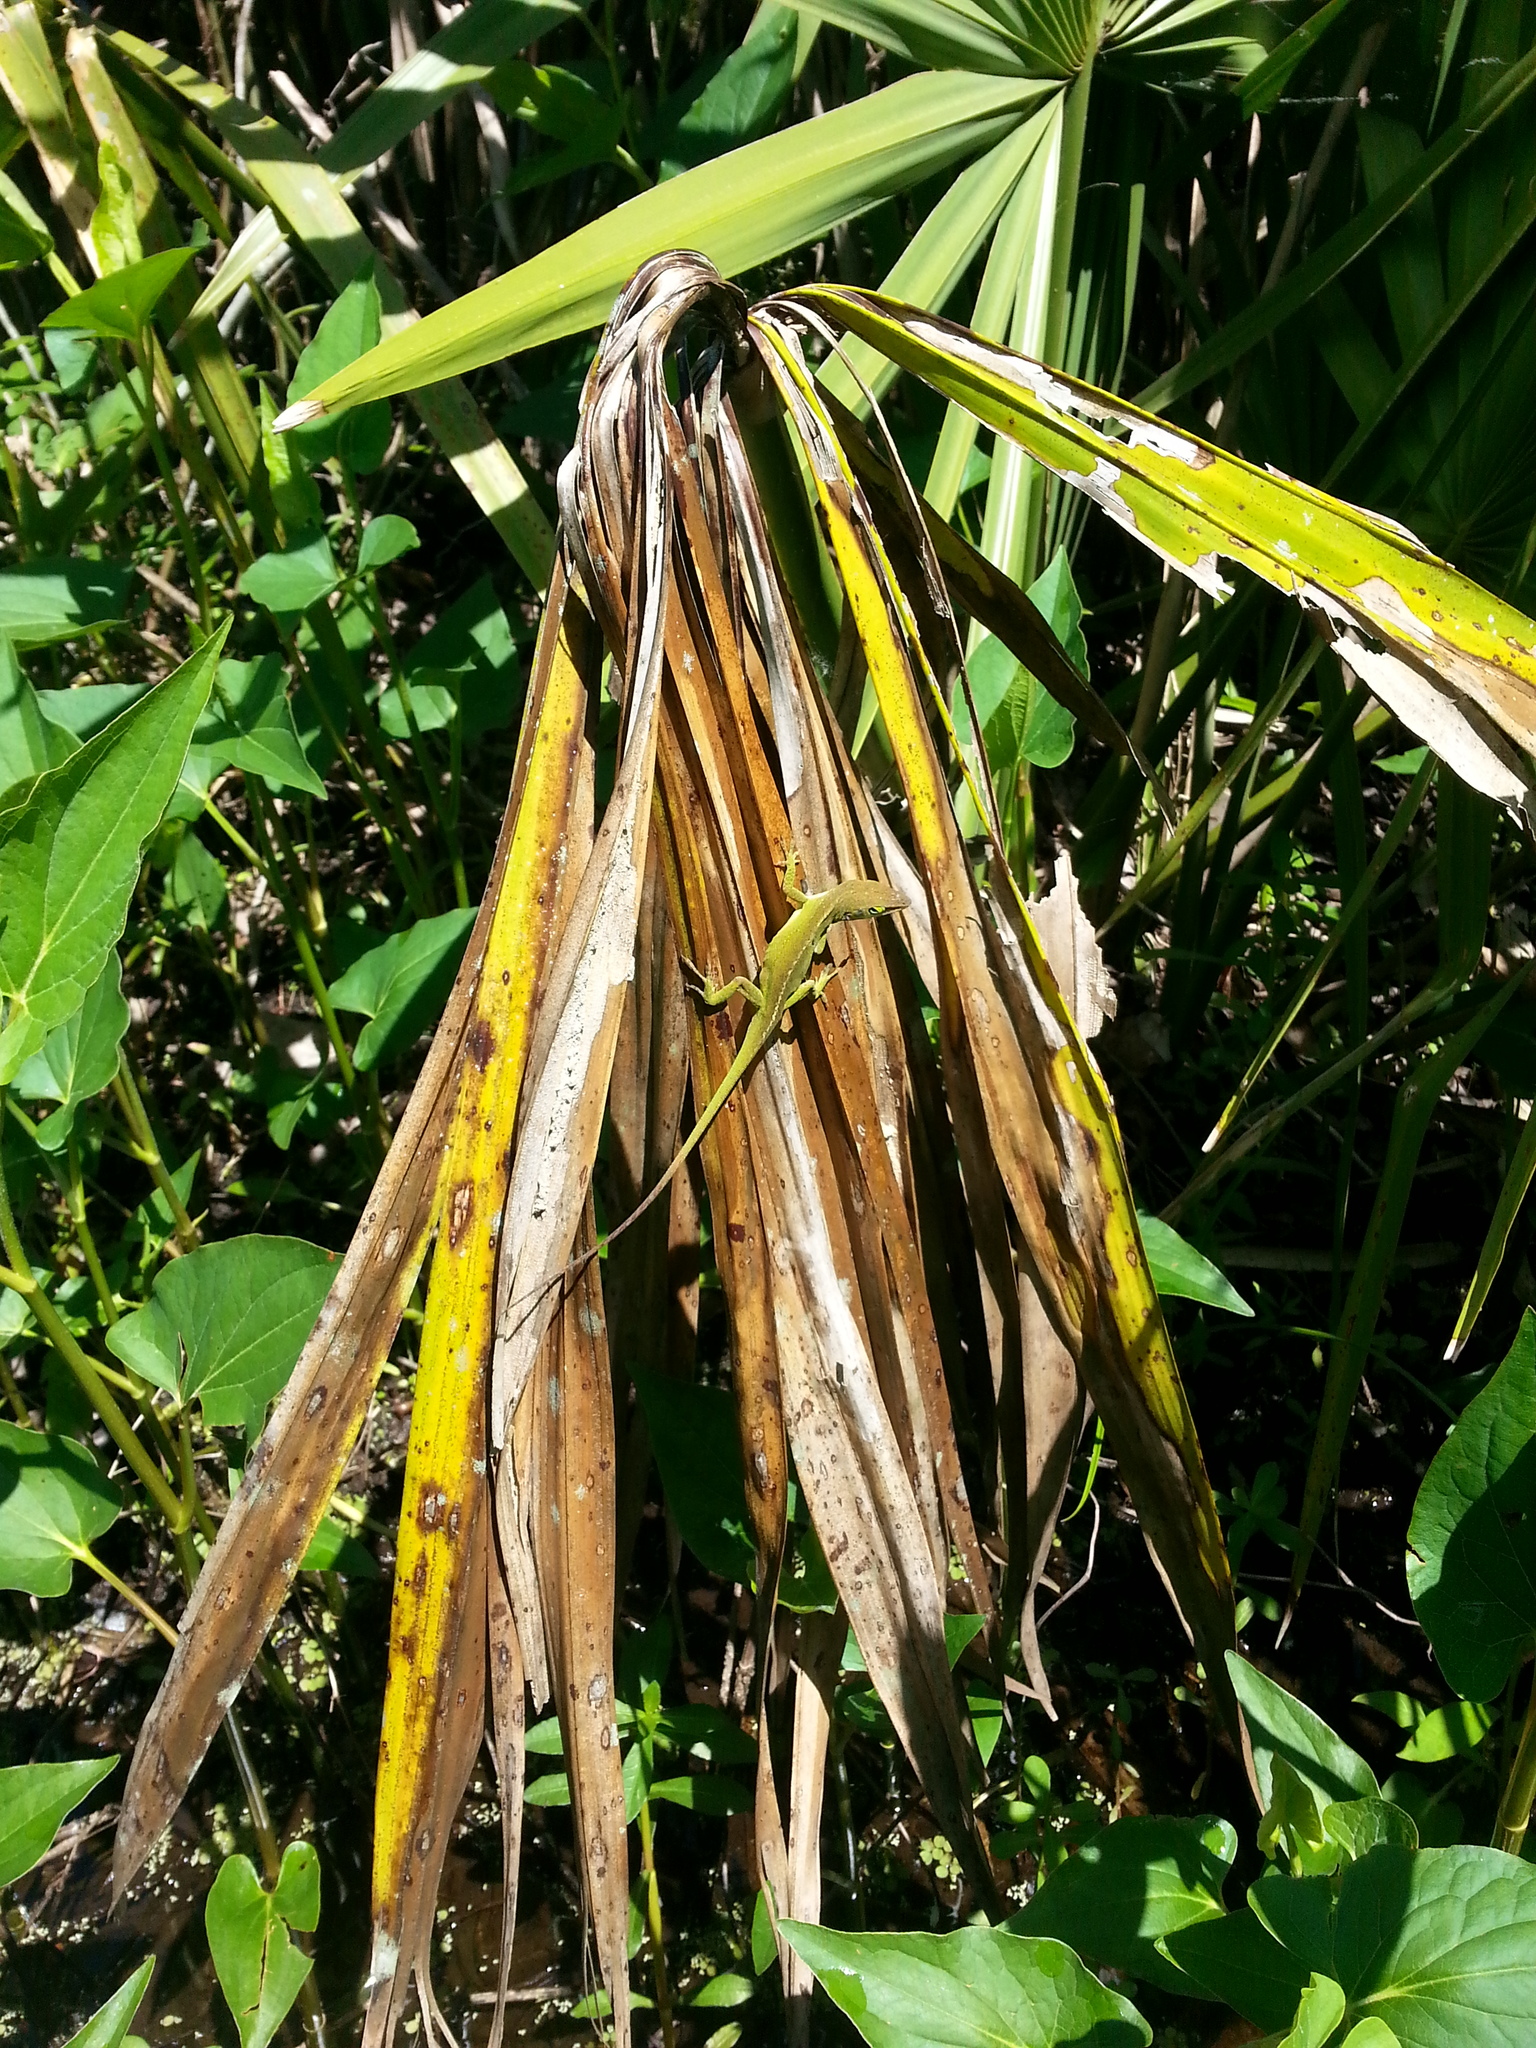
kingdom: Animalia
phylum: Chordata
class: Squamata
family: Dactyloidae
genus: Anolis
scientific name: Anolis carolinensis
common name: Green anole
